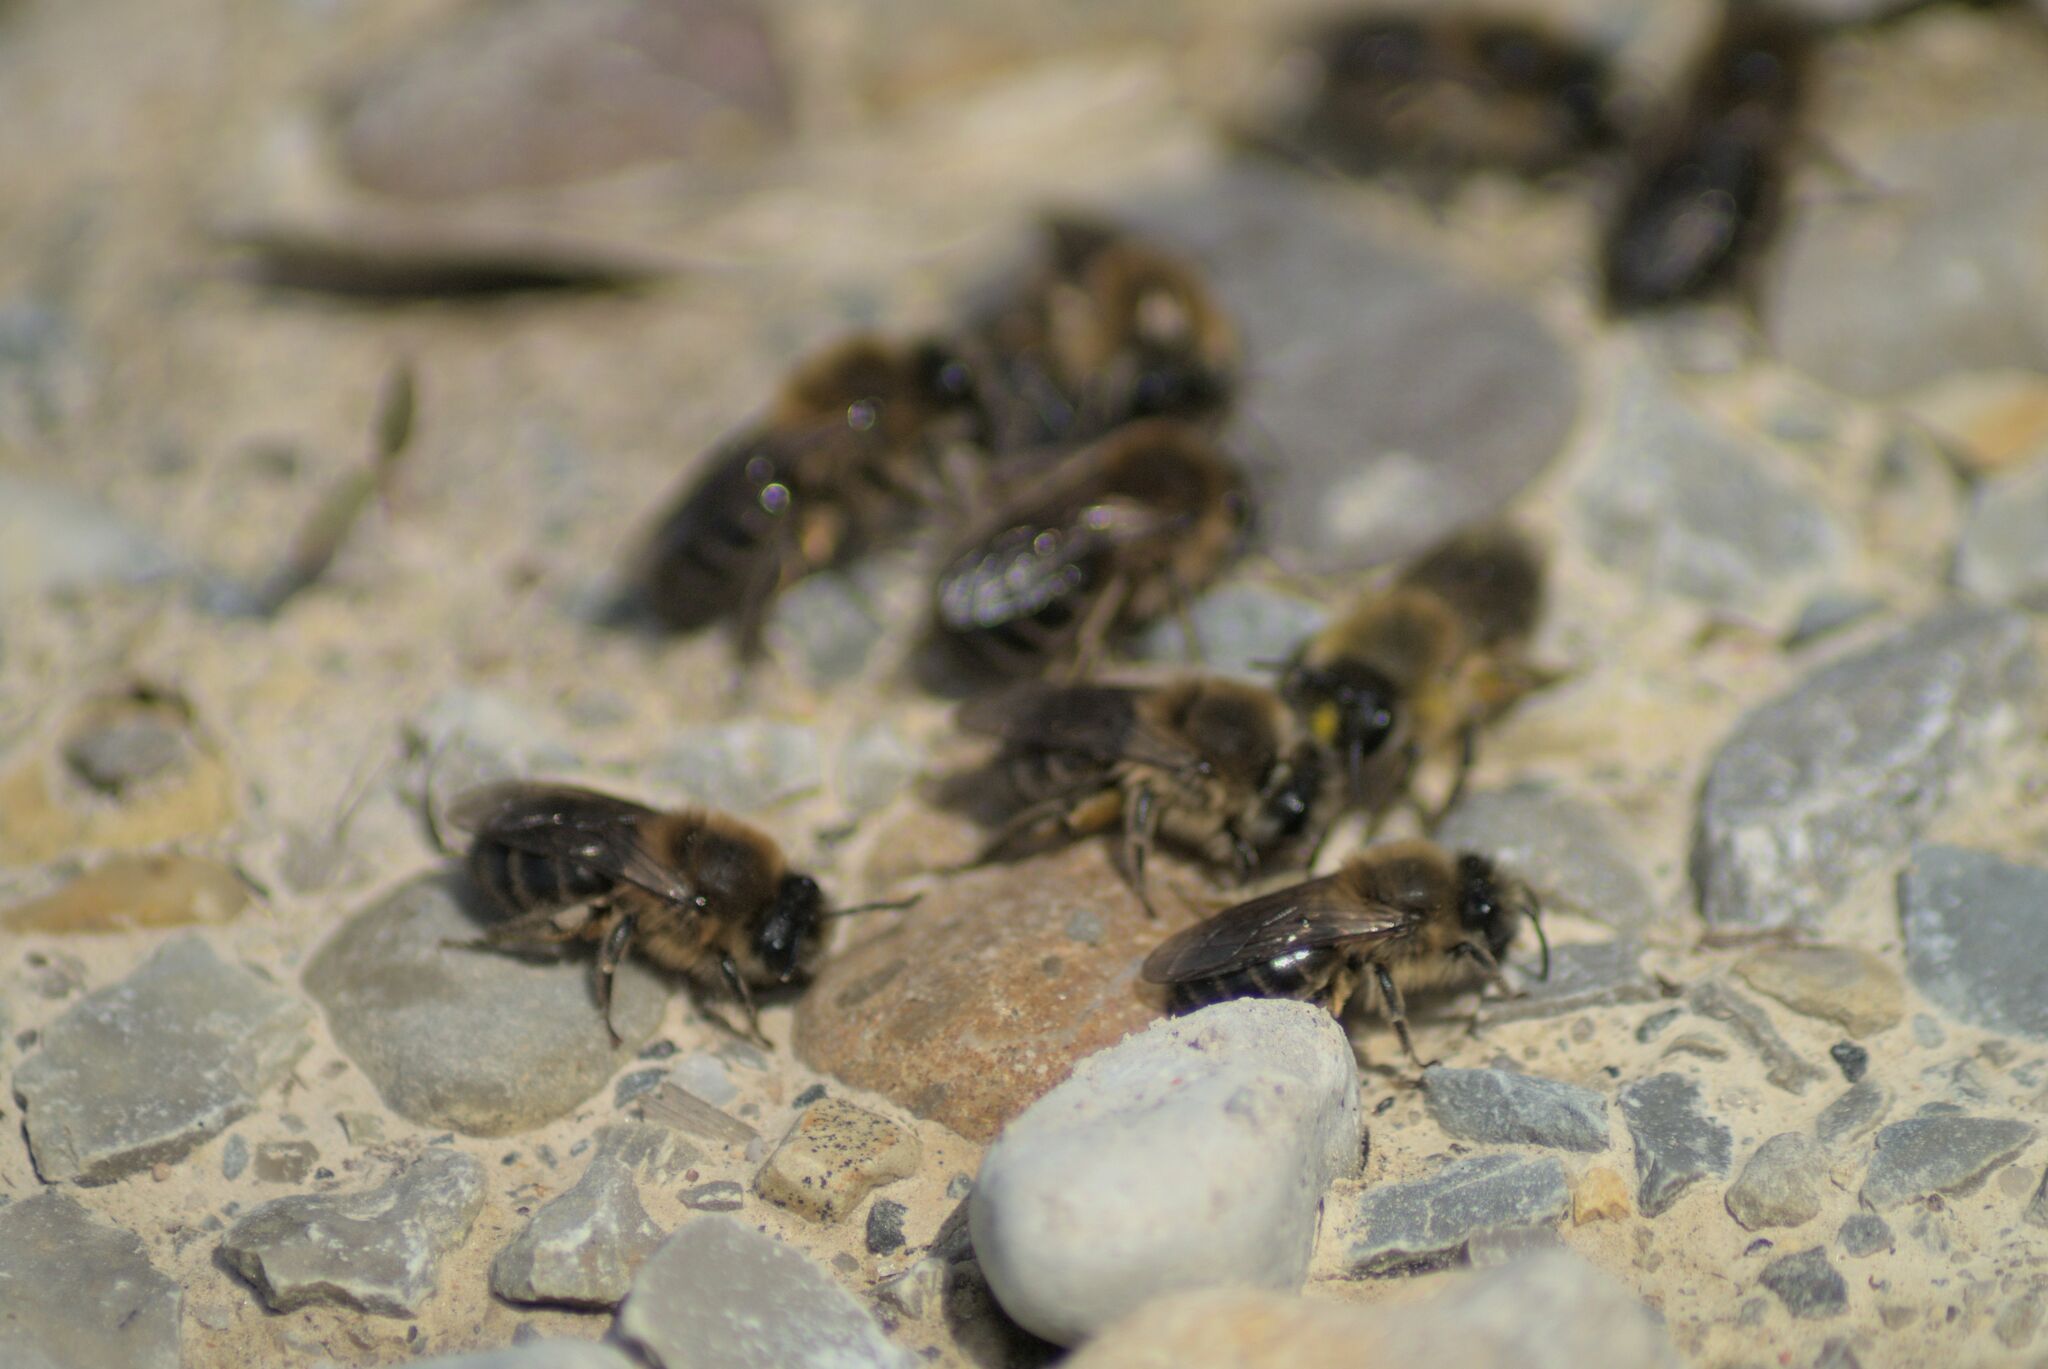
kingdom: Animalia
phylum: Arthropoda
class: Insecta
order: Hymenoptera
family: Colletidae
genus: Colletes
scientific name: Colletes cunicularius
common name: Early colletes
